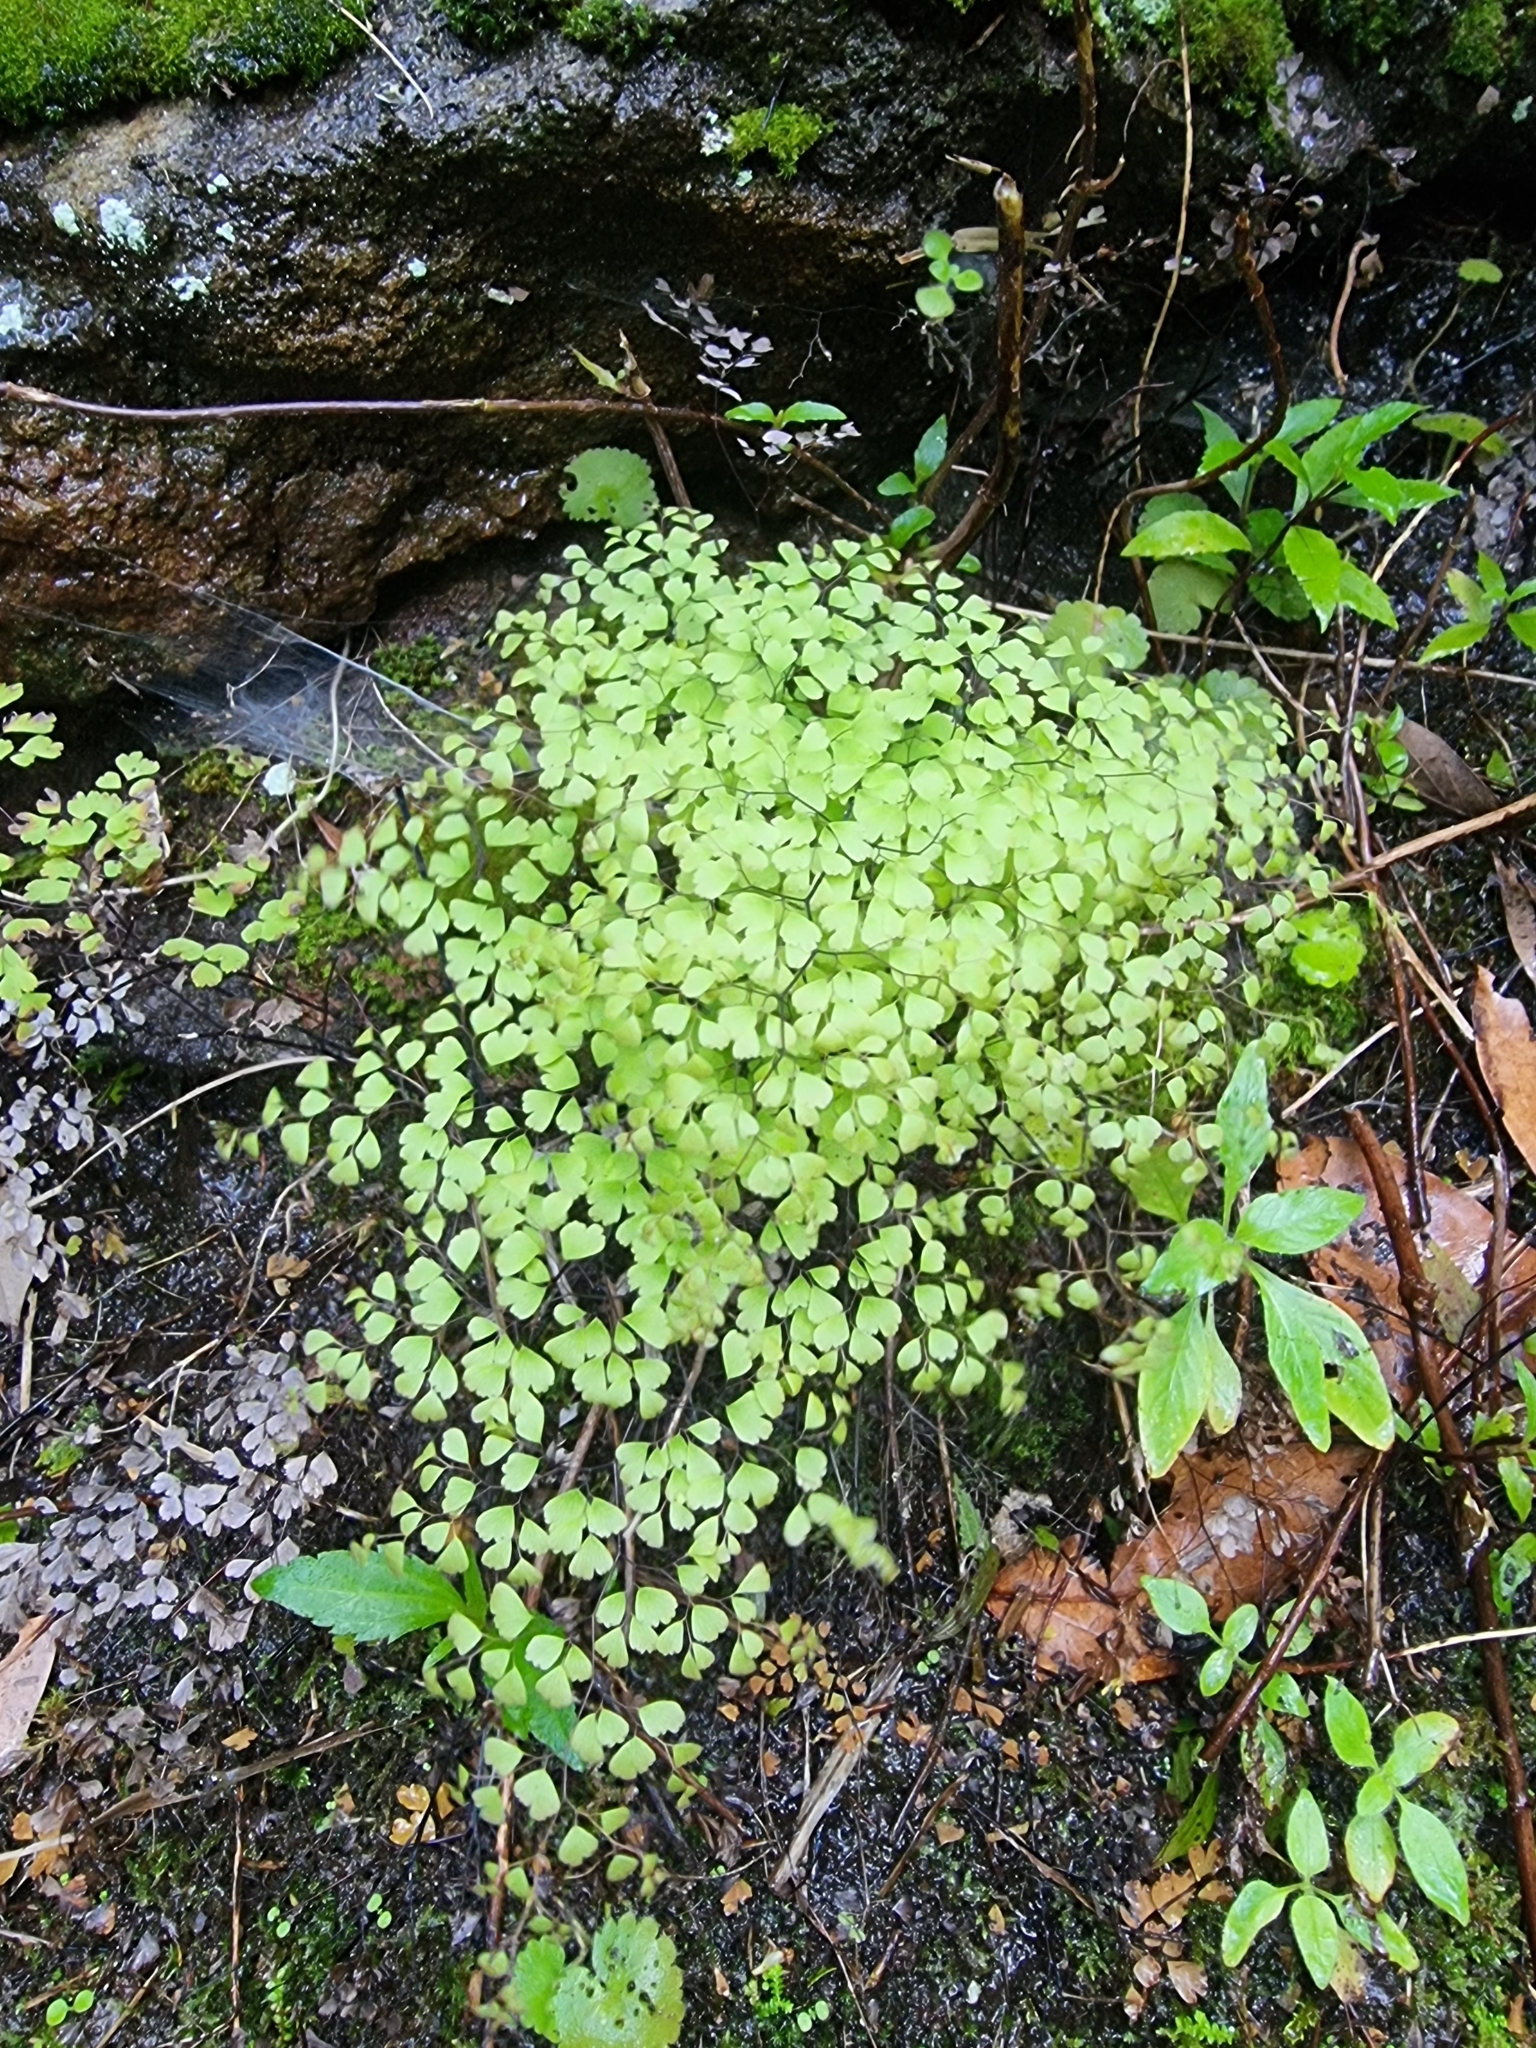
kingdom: Plantae
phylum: Tracheophyta
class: Polypodiopsida
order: Polypodiales
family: Pteridaceae
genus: Adiantum
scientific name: Adiantum capillus-veneris
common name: Maidenhair fern
